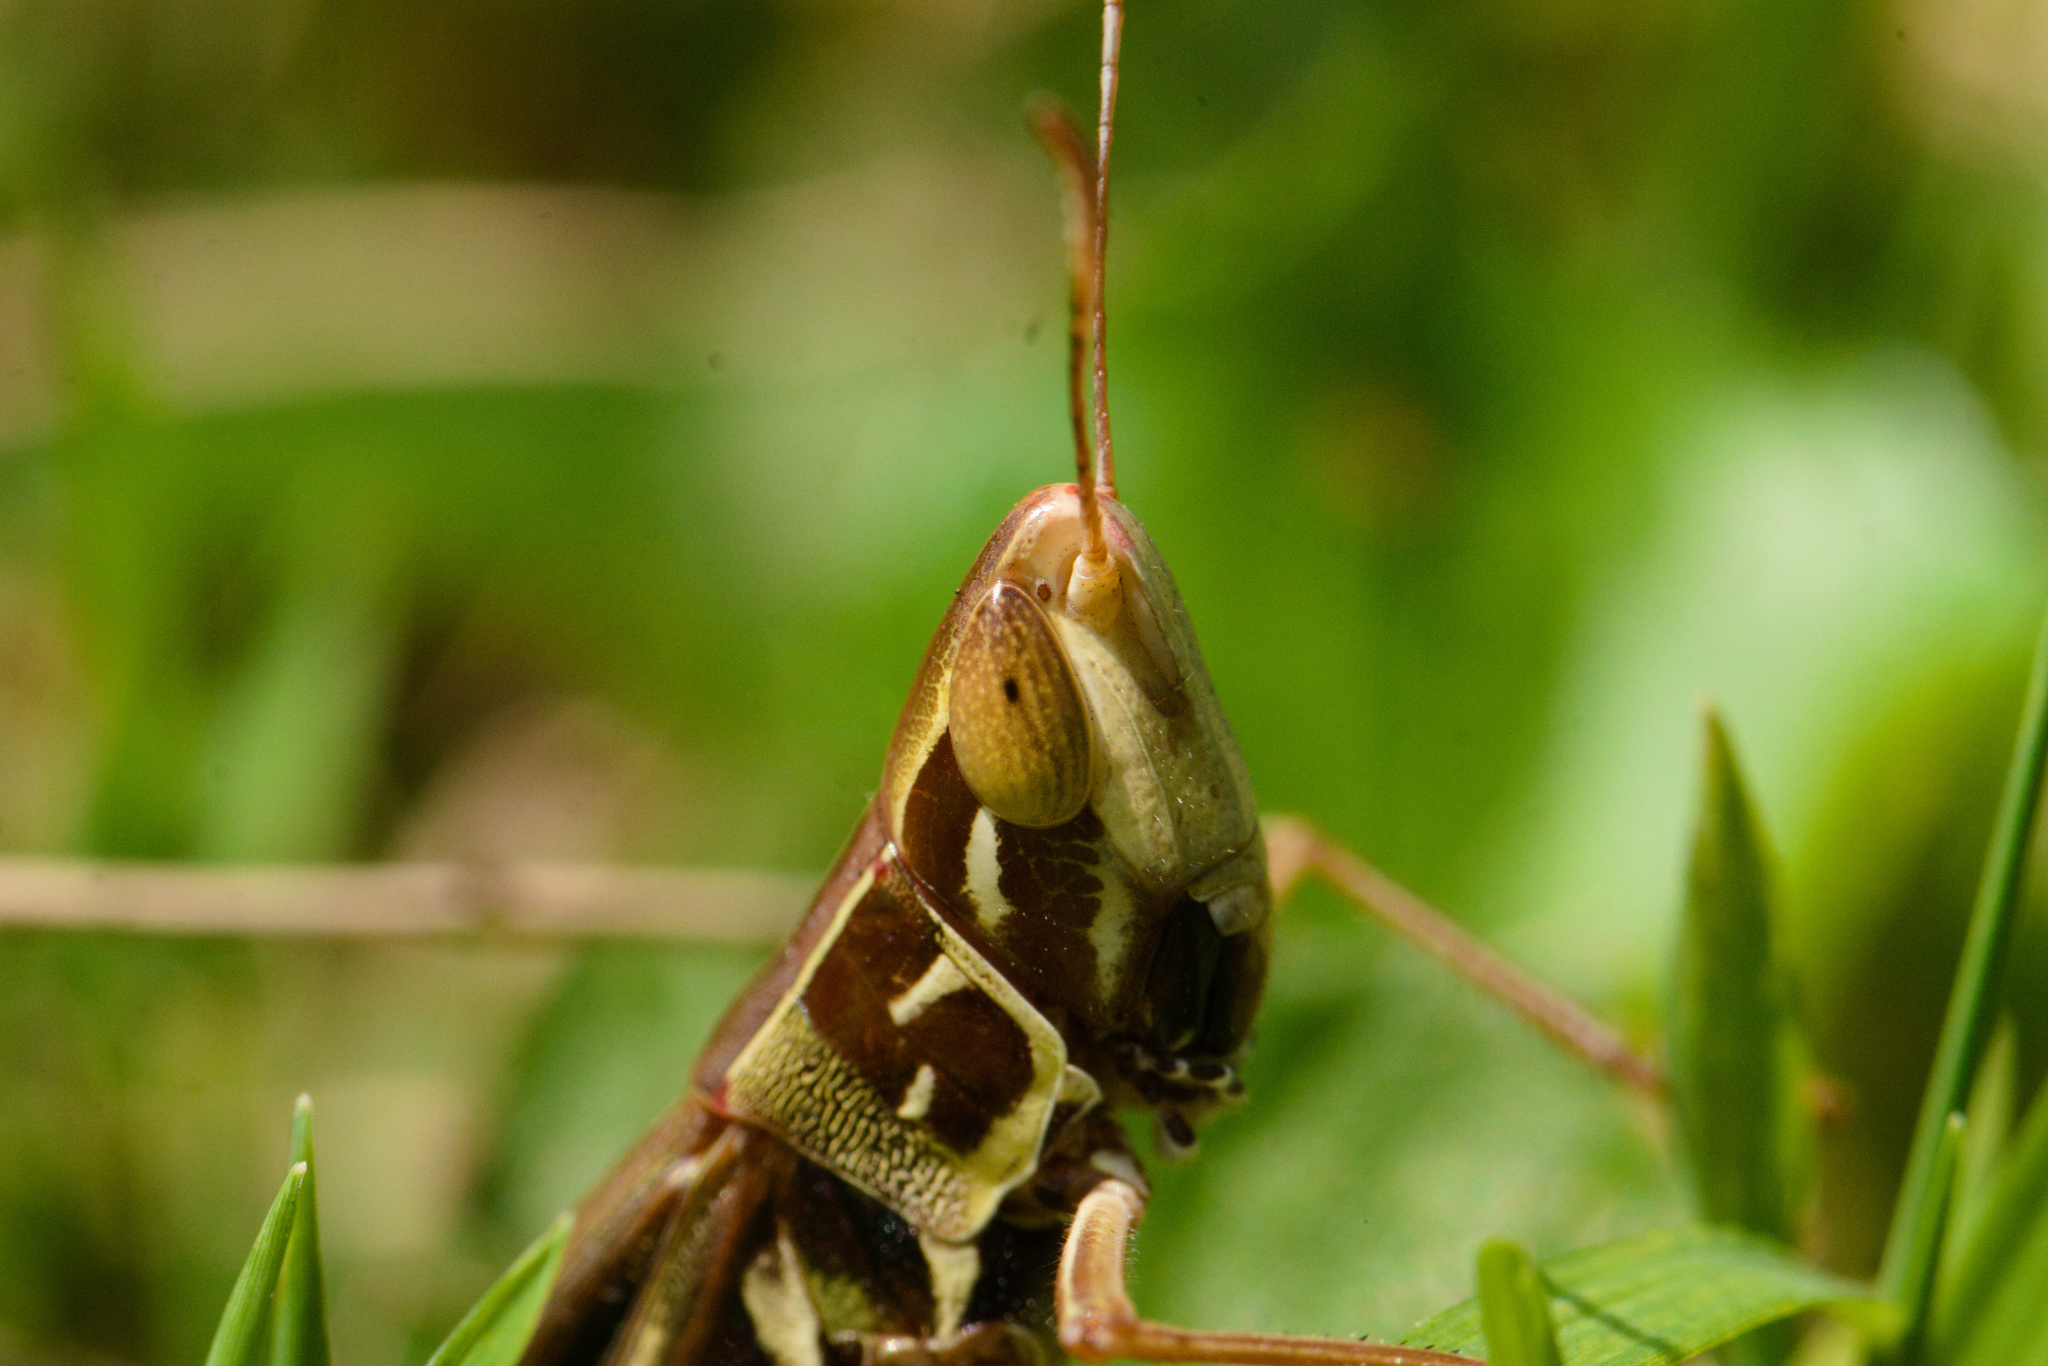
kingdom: Animalia
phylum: Arthropoda
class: Insecta
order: Orthoptera
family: Acrididae
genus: Syrbula
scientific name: Syrbula admirabilis
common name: Handsome grasshopper
